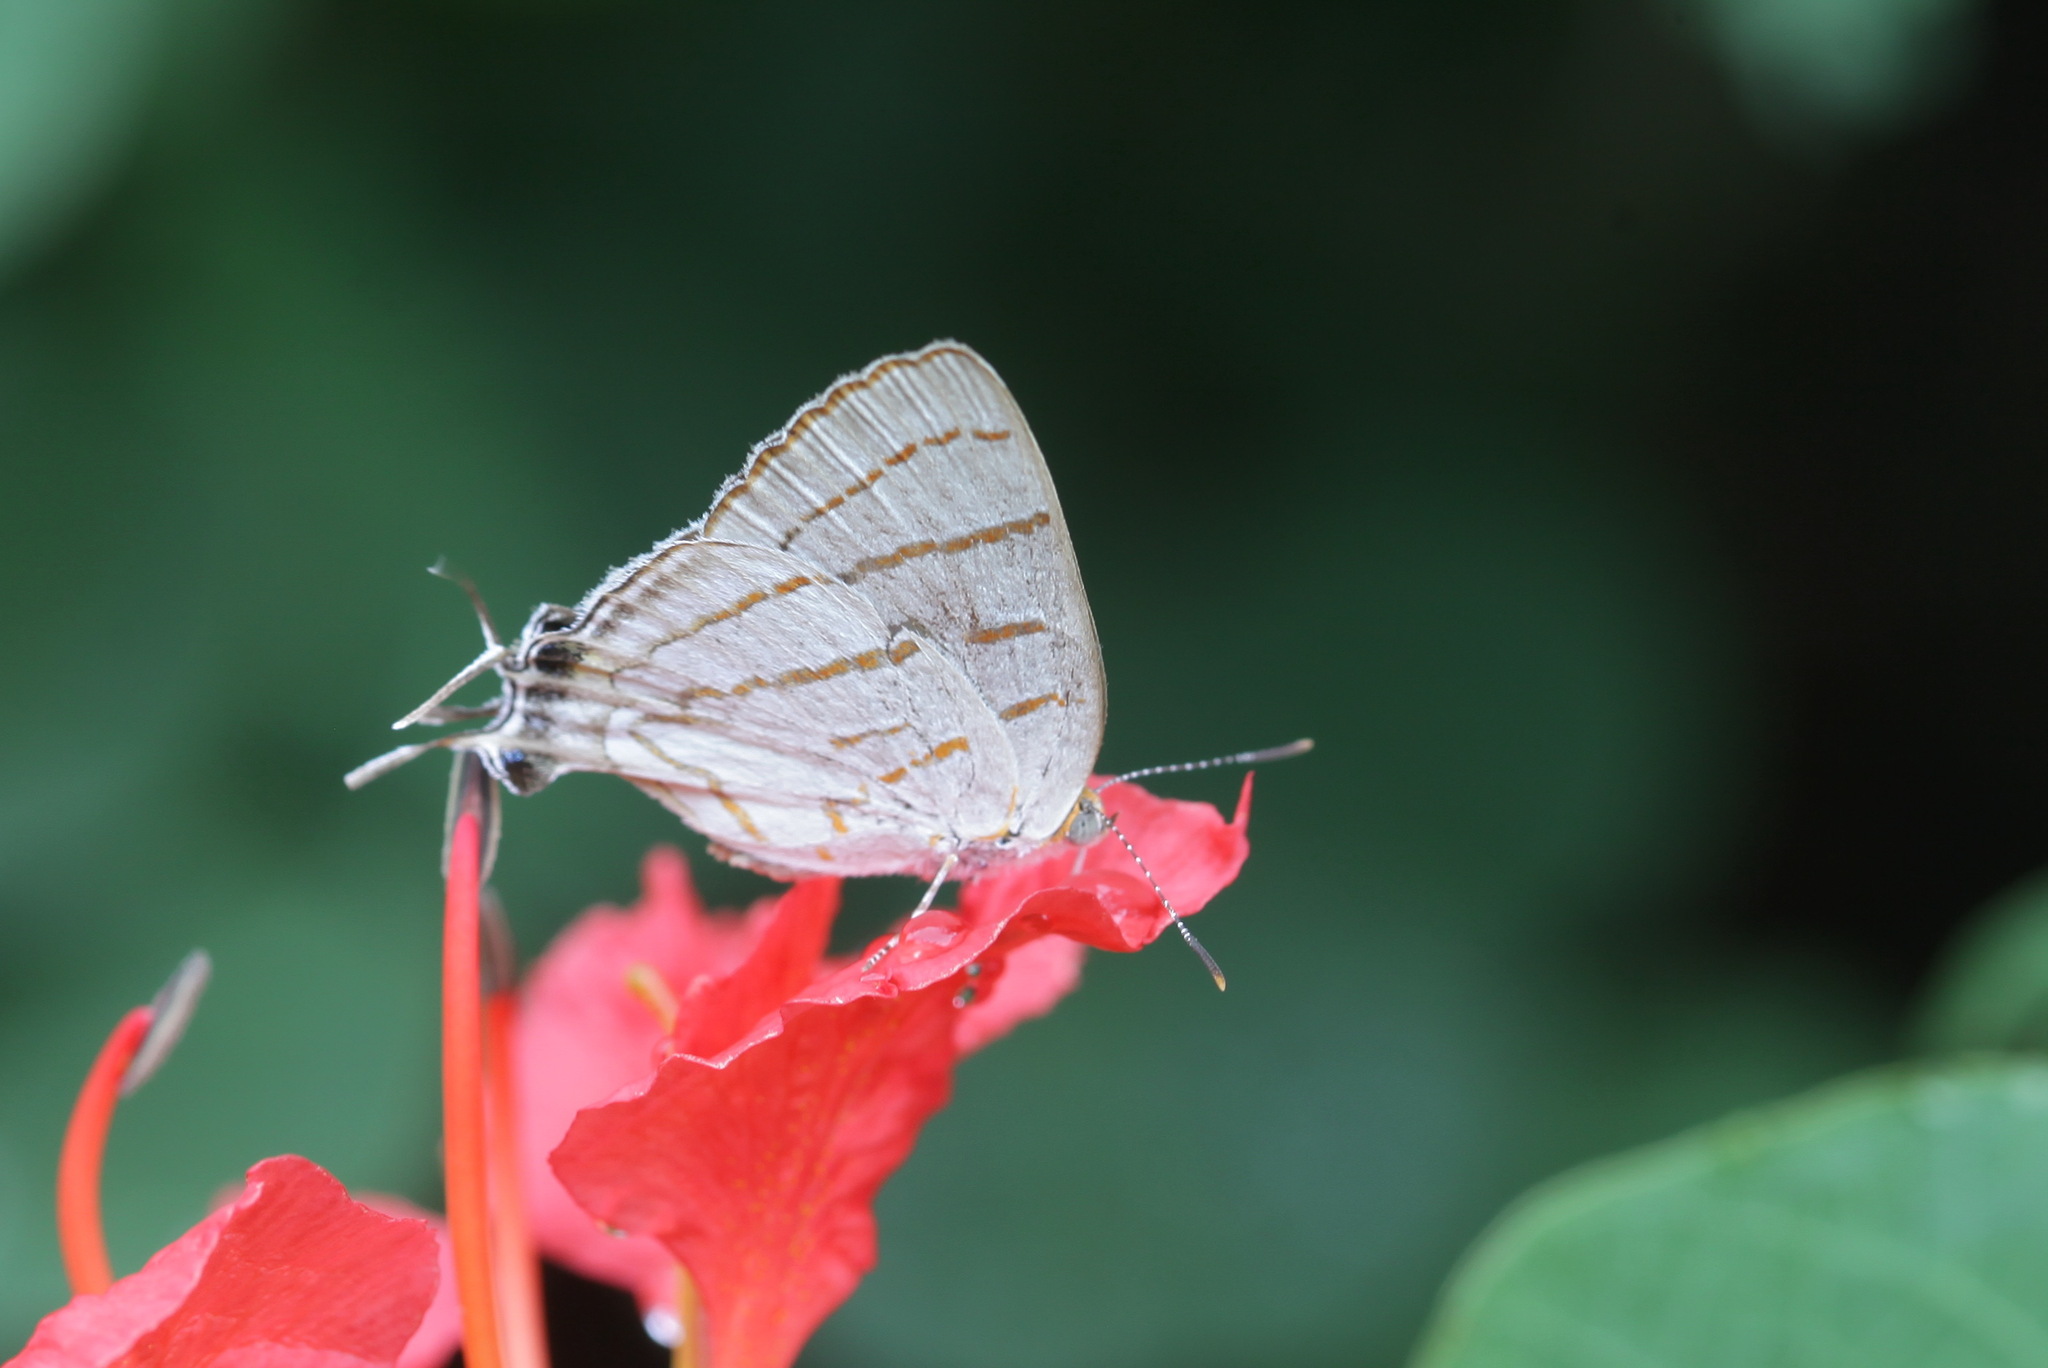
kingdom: Animalia
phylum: Arthropoda
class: Insecta
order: Lepidoptera
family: Lycaenidae
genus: Hemiolaus
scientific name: Hemiolaus caeculus
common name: Azure hairstreak
